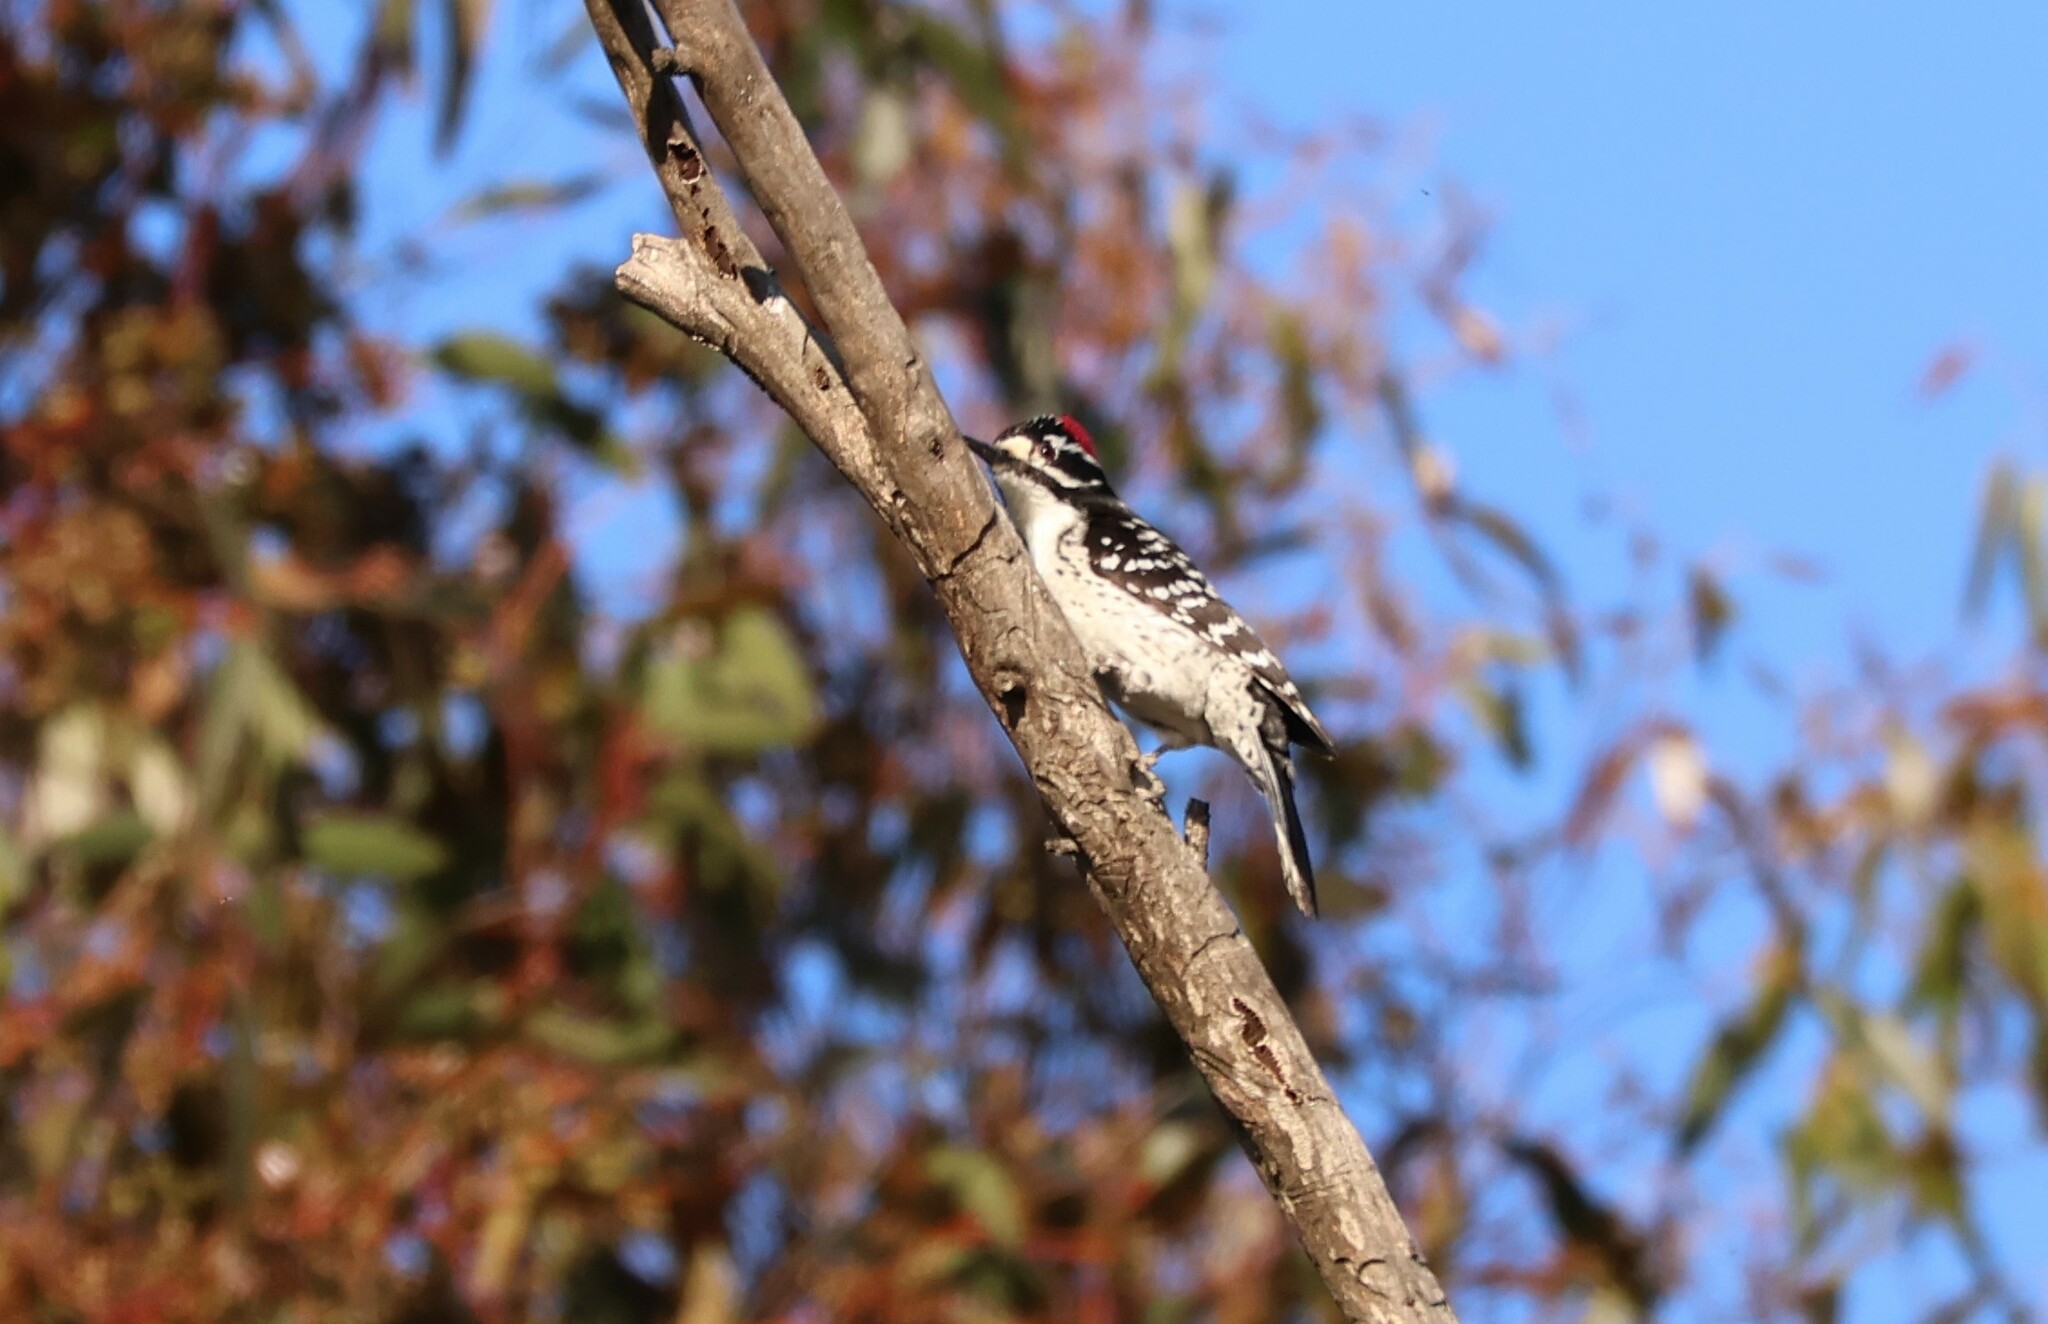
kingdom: Animalia
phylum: Chordata
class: Aves
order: Piciformes
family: Picidae
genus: Dryobates
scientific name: Dryobates nuttallii
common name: Nuttall's woodpecker
